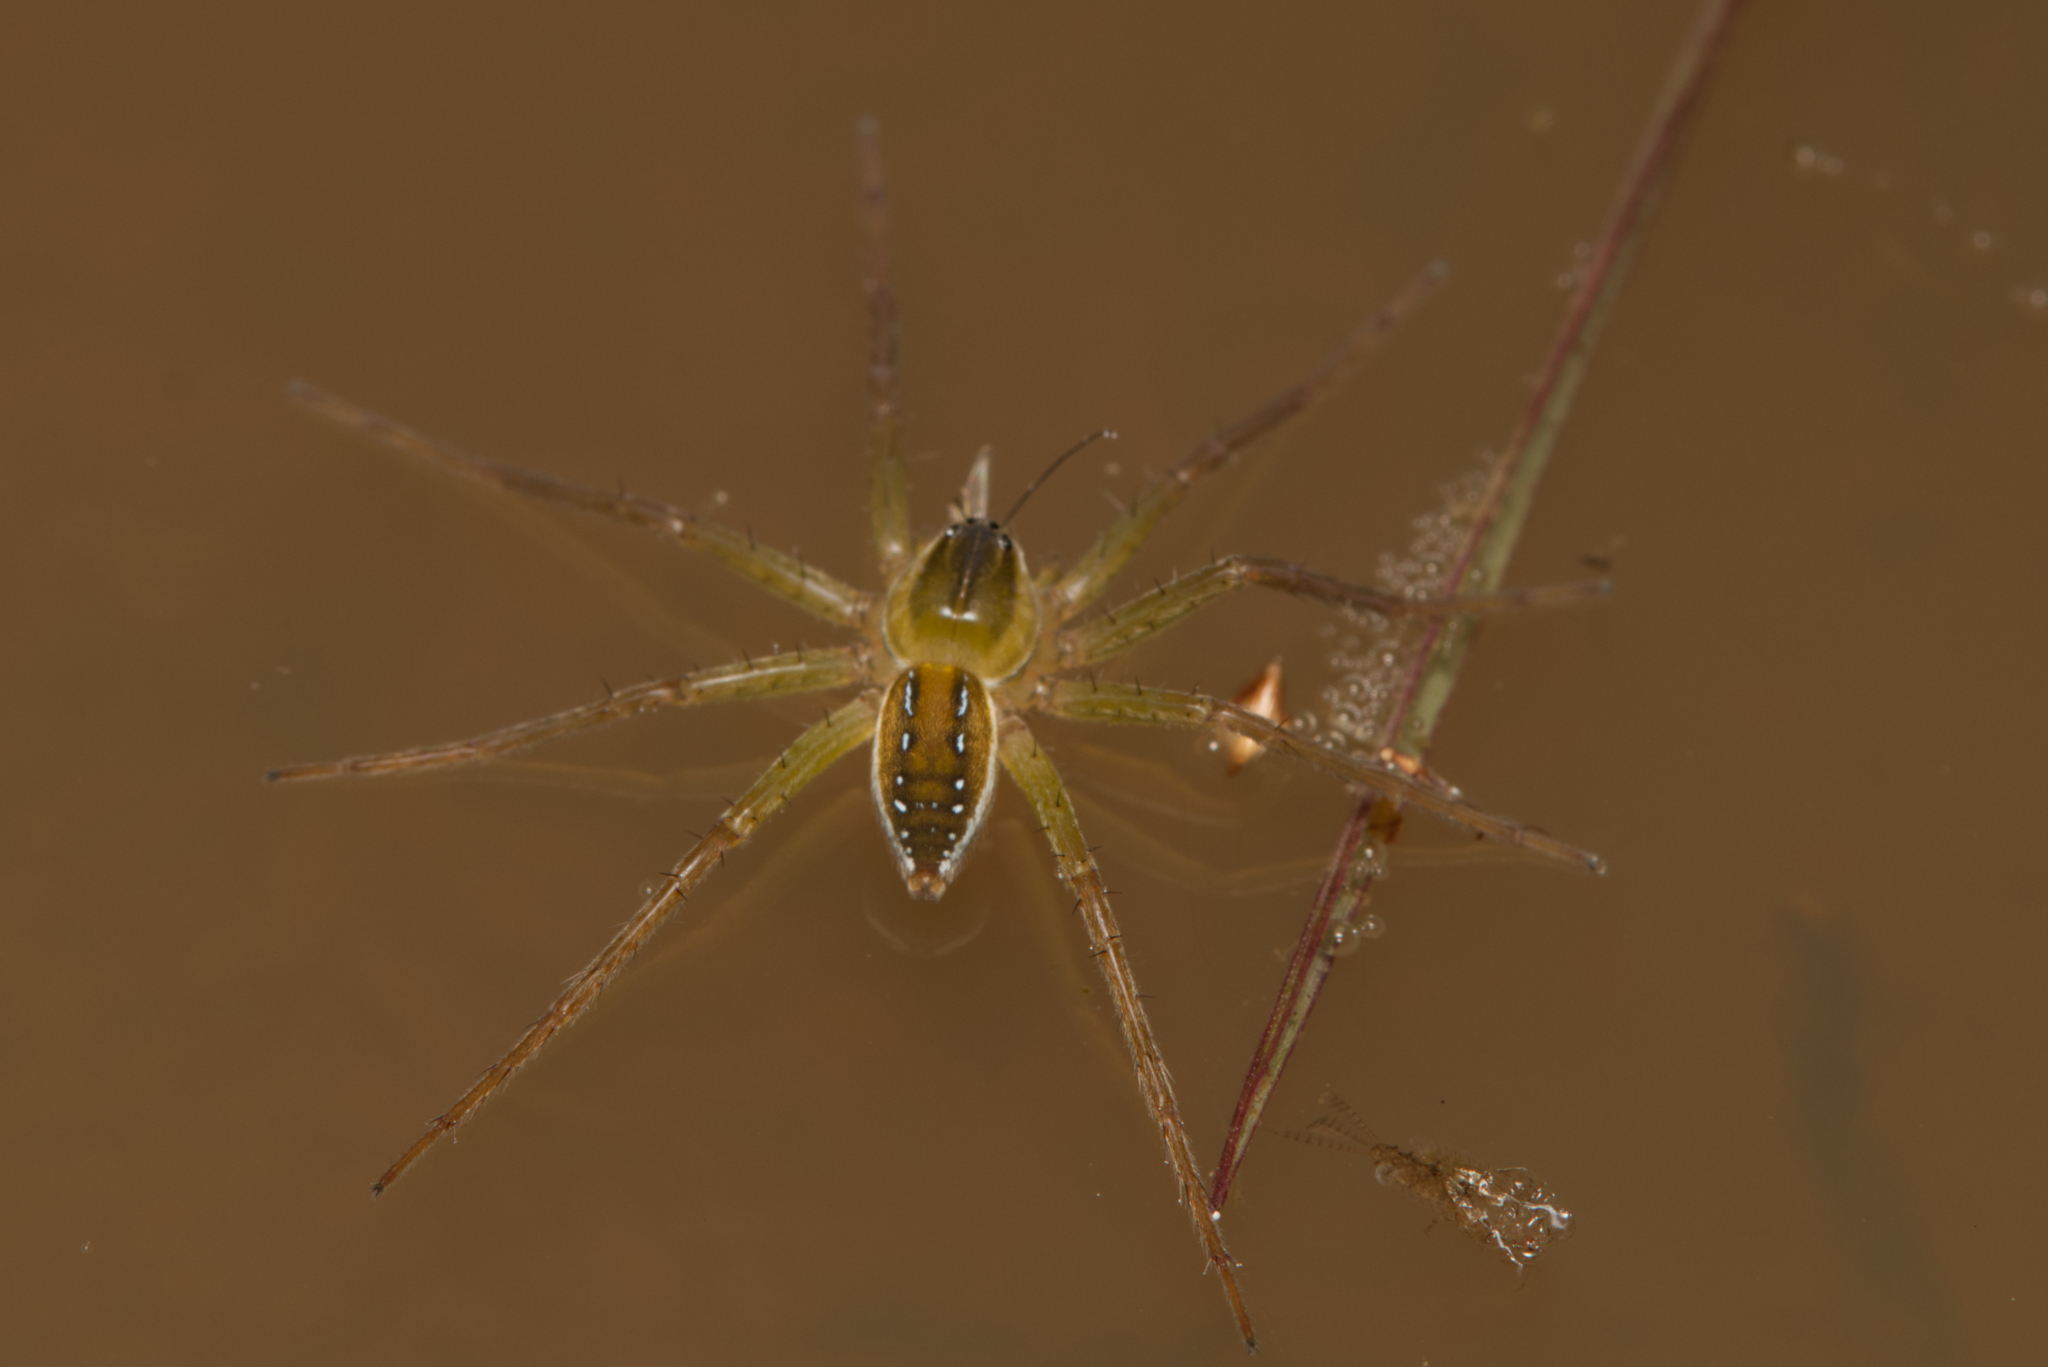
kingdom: Animalia
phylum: Arthropoda
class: Arachnida
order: Araneae
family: Pisauridae
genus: Dolomedes
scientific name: Dolomedes facetus
